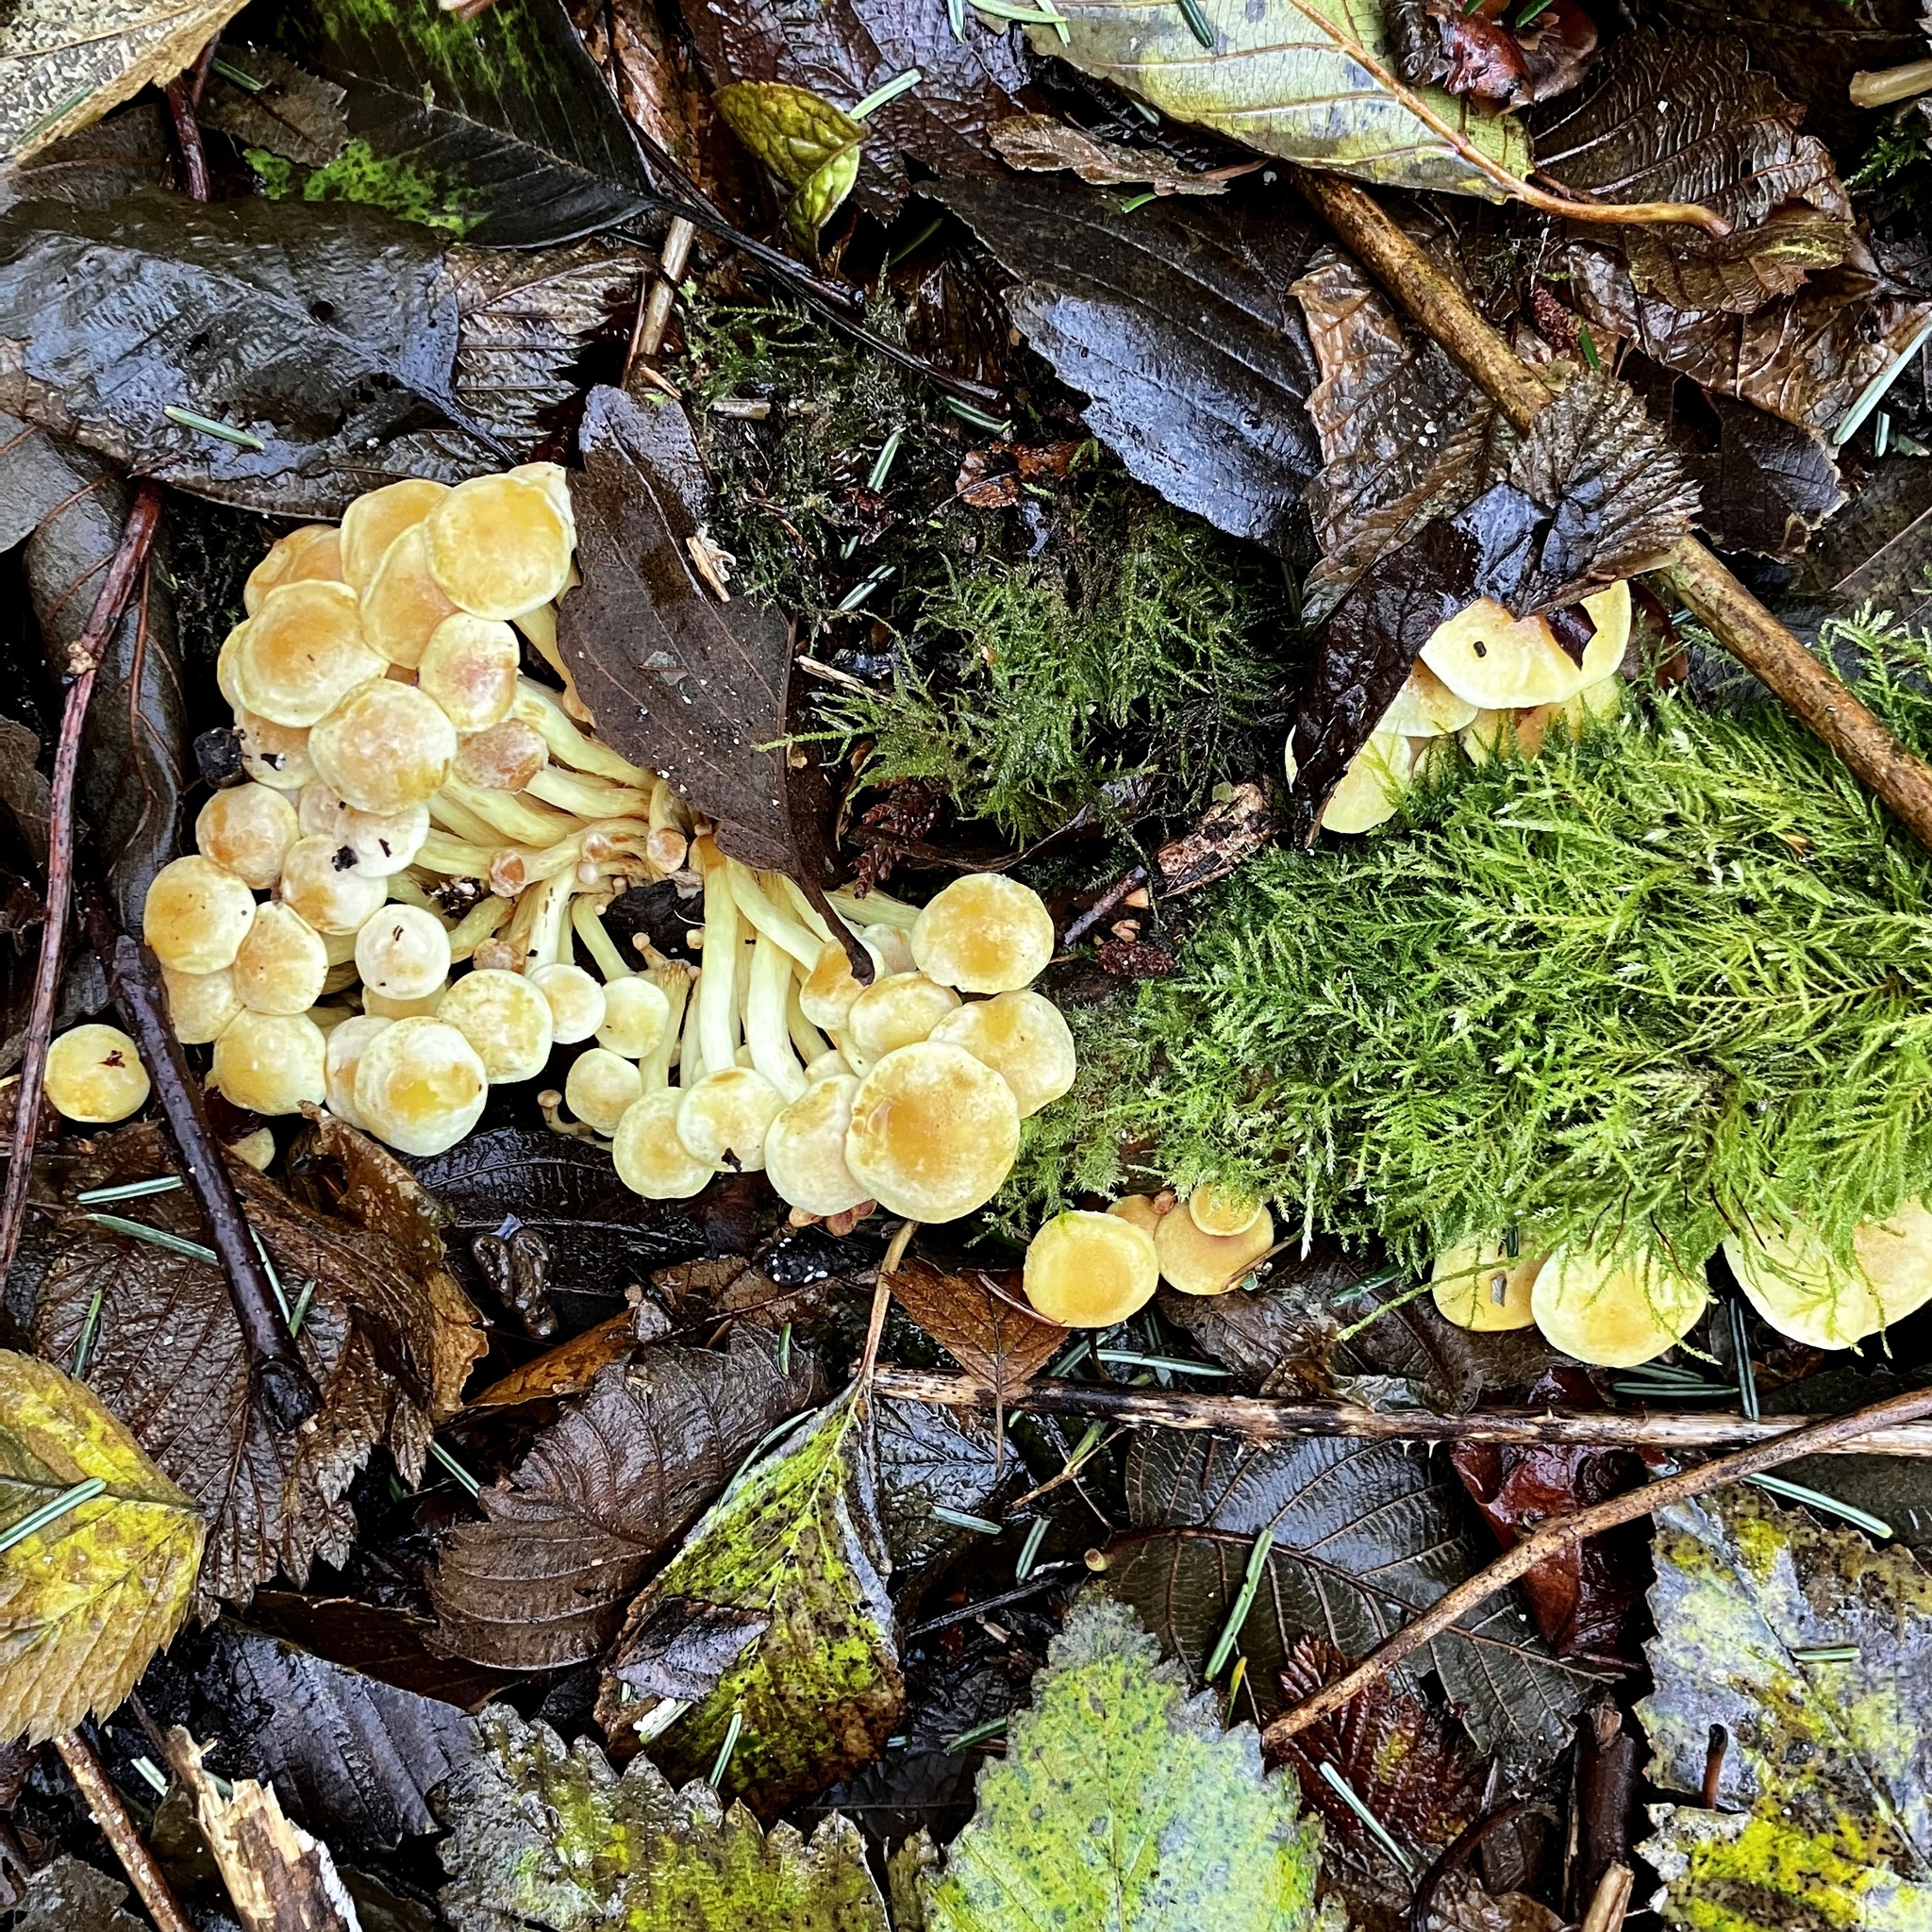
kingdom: Fungi
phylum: Basidiomycota
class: Agaricomycetes
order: Agaricales
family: Strophariaceae
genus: Hypholoma
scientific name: Hypholoma fasciculare
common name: Sulphur tuft
